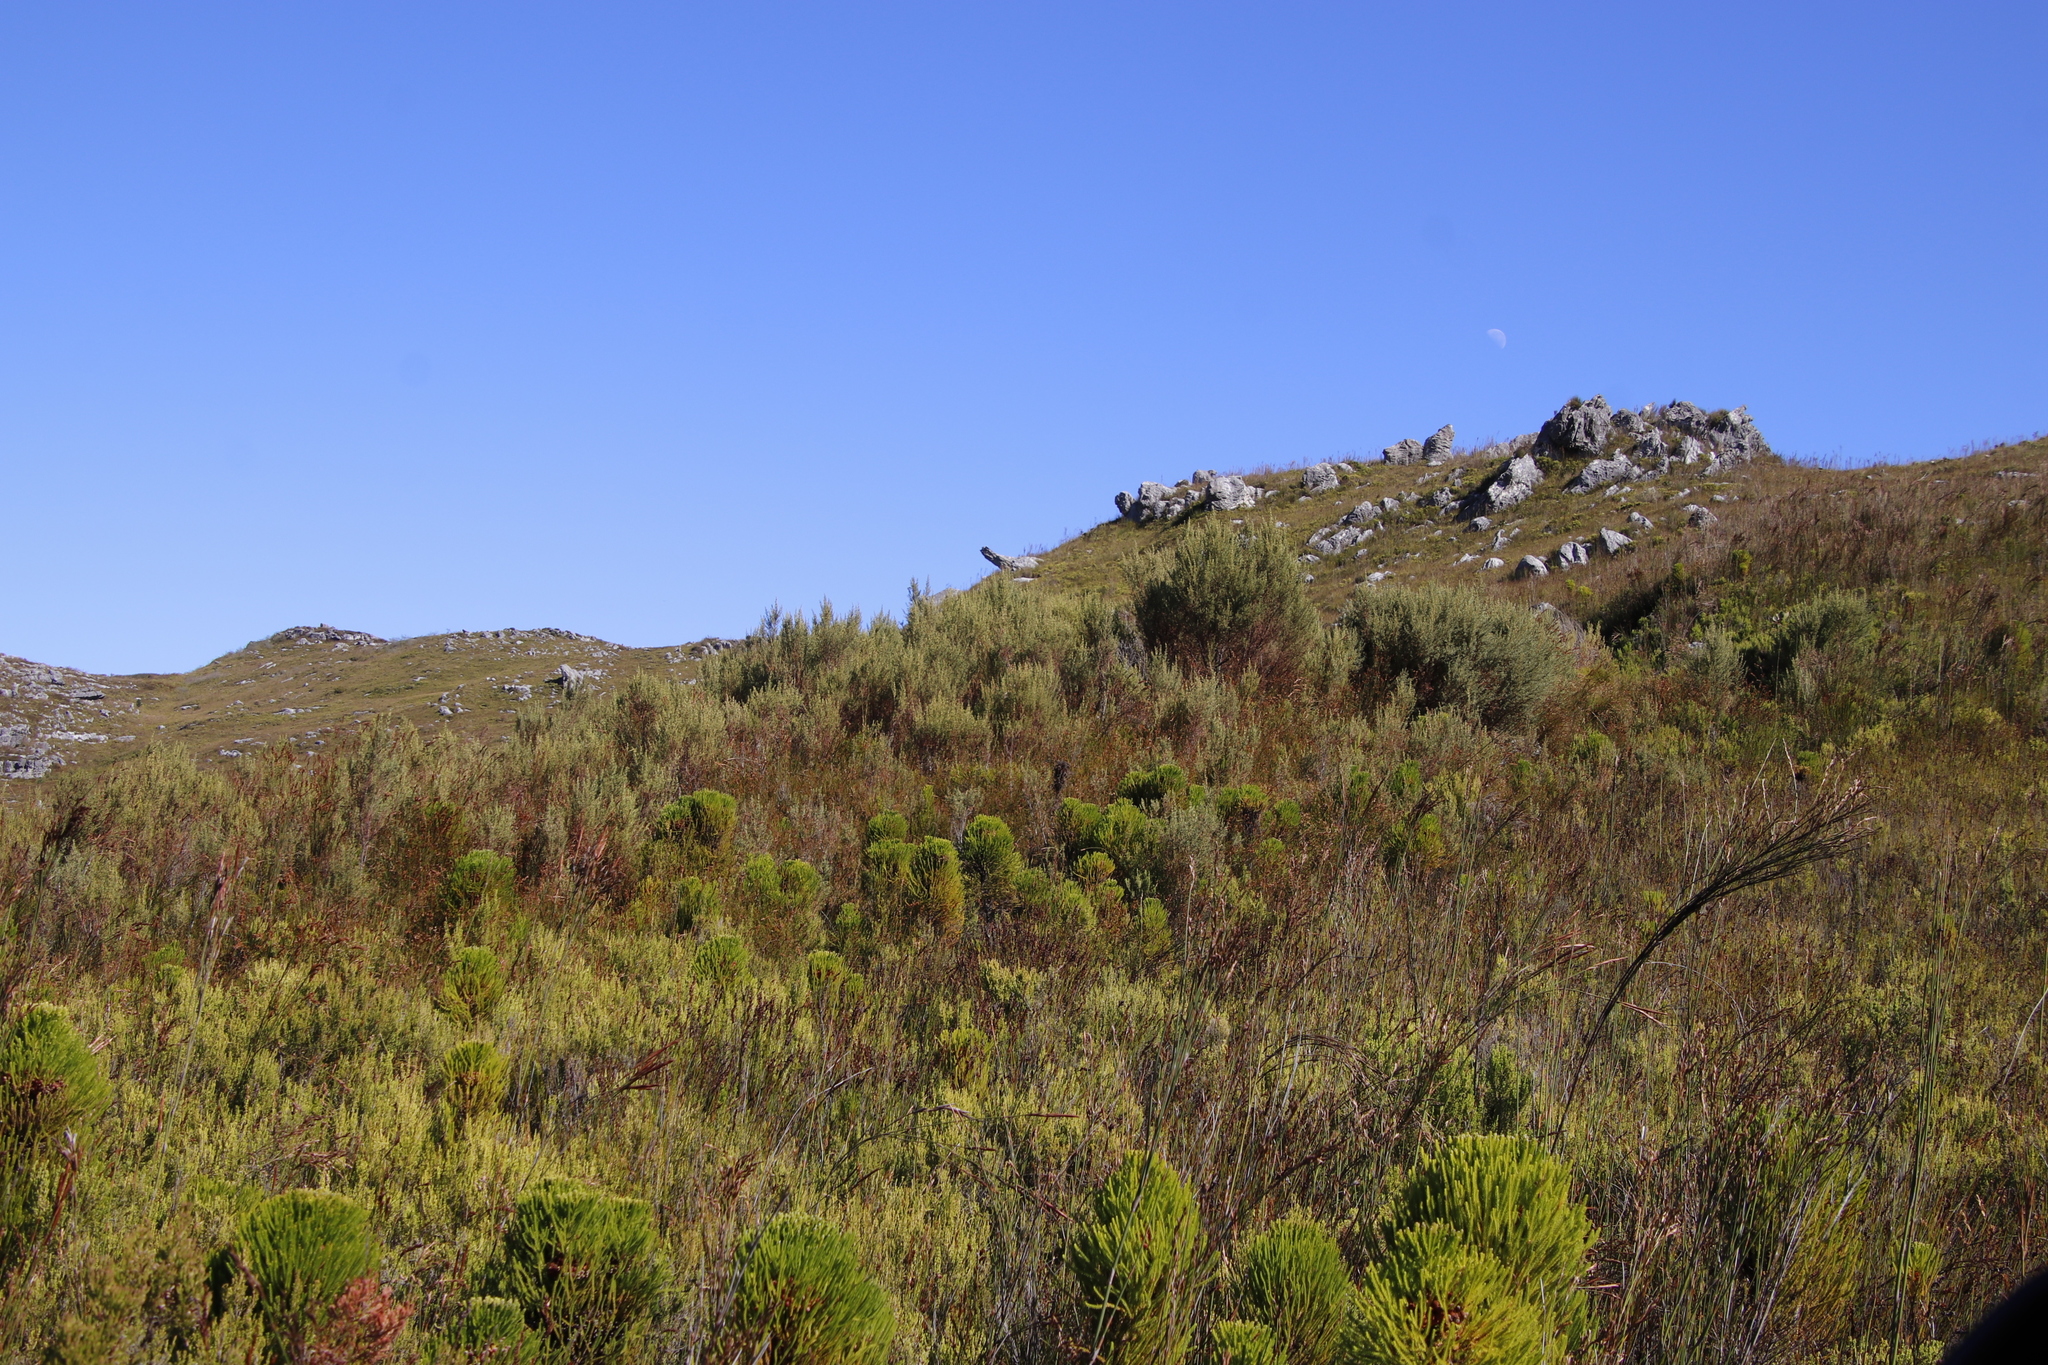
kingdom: Plantae
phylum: Tracheophyta
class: Magnoliopsida
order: Cornales
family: Grubbiaceae
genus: Grubbia
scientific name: Grubbia rosmarinifolia
